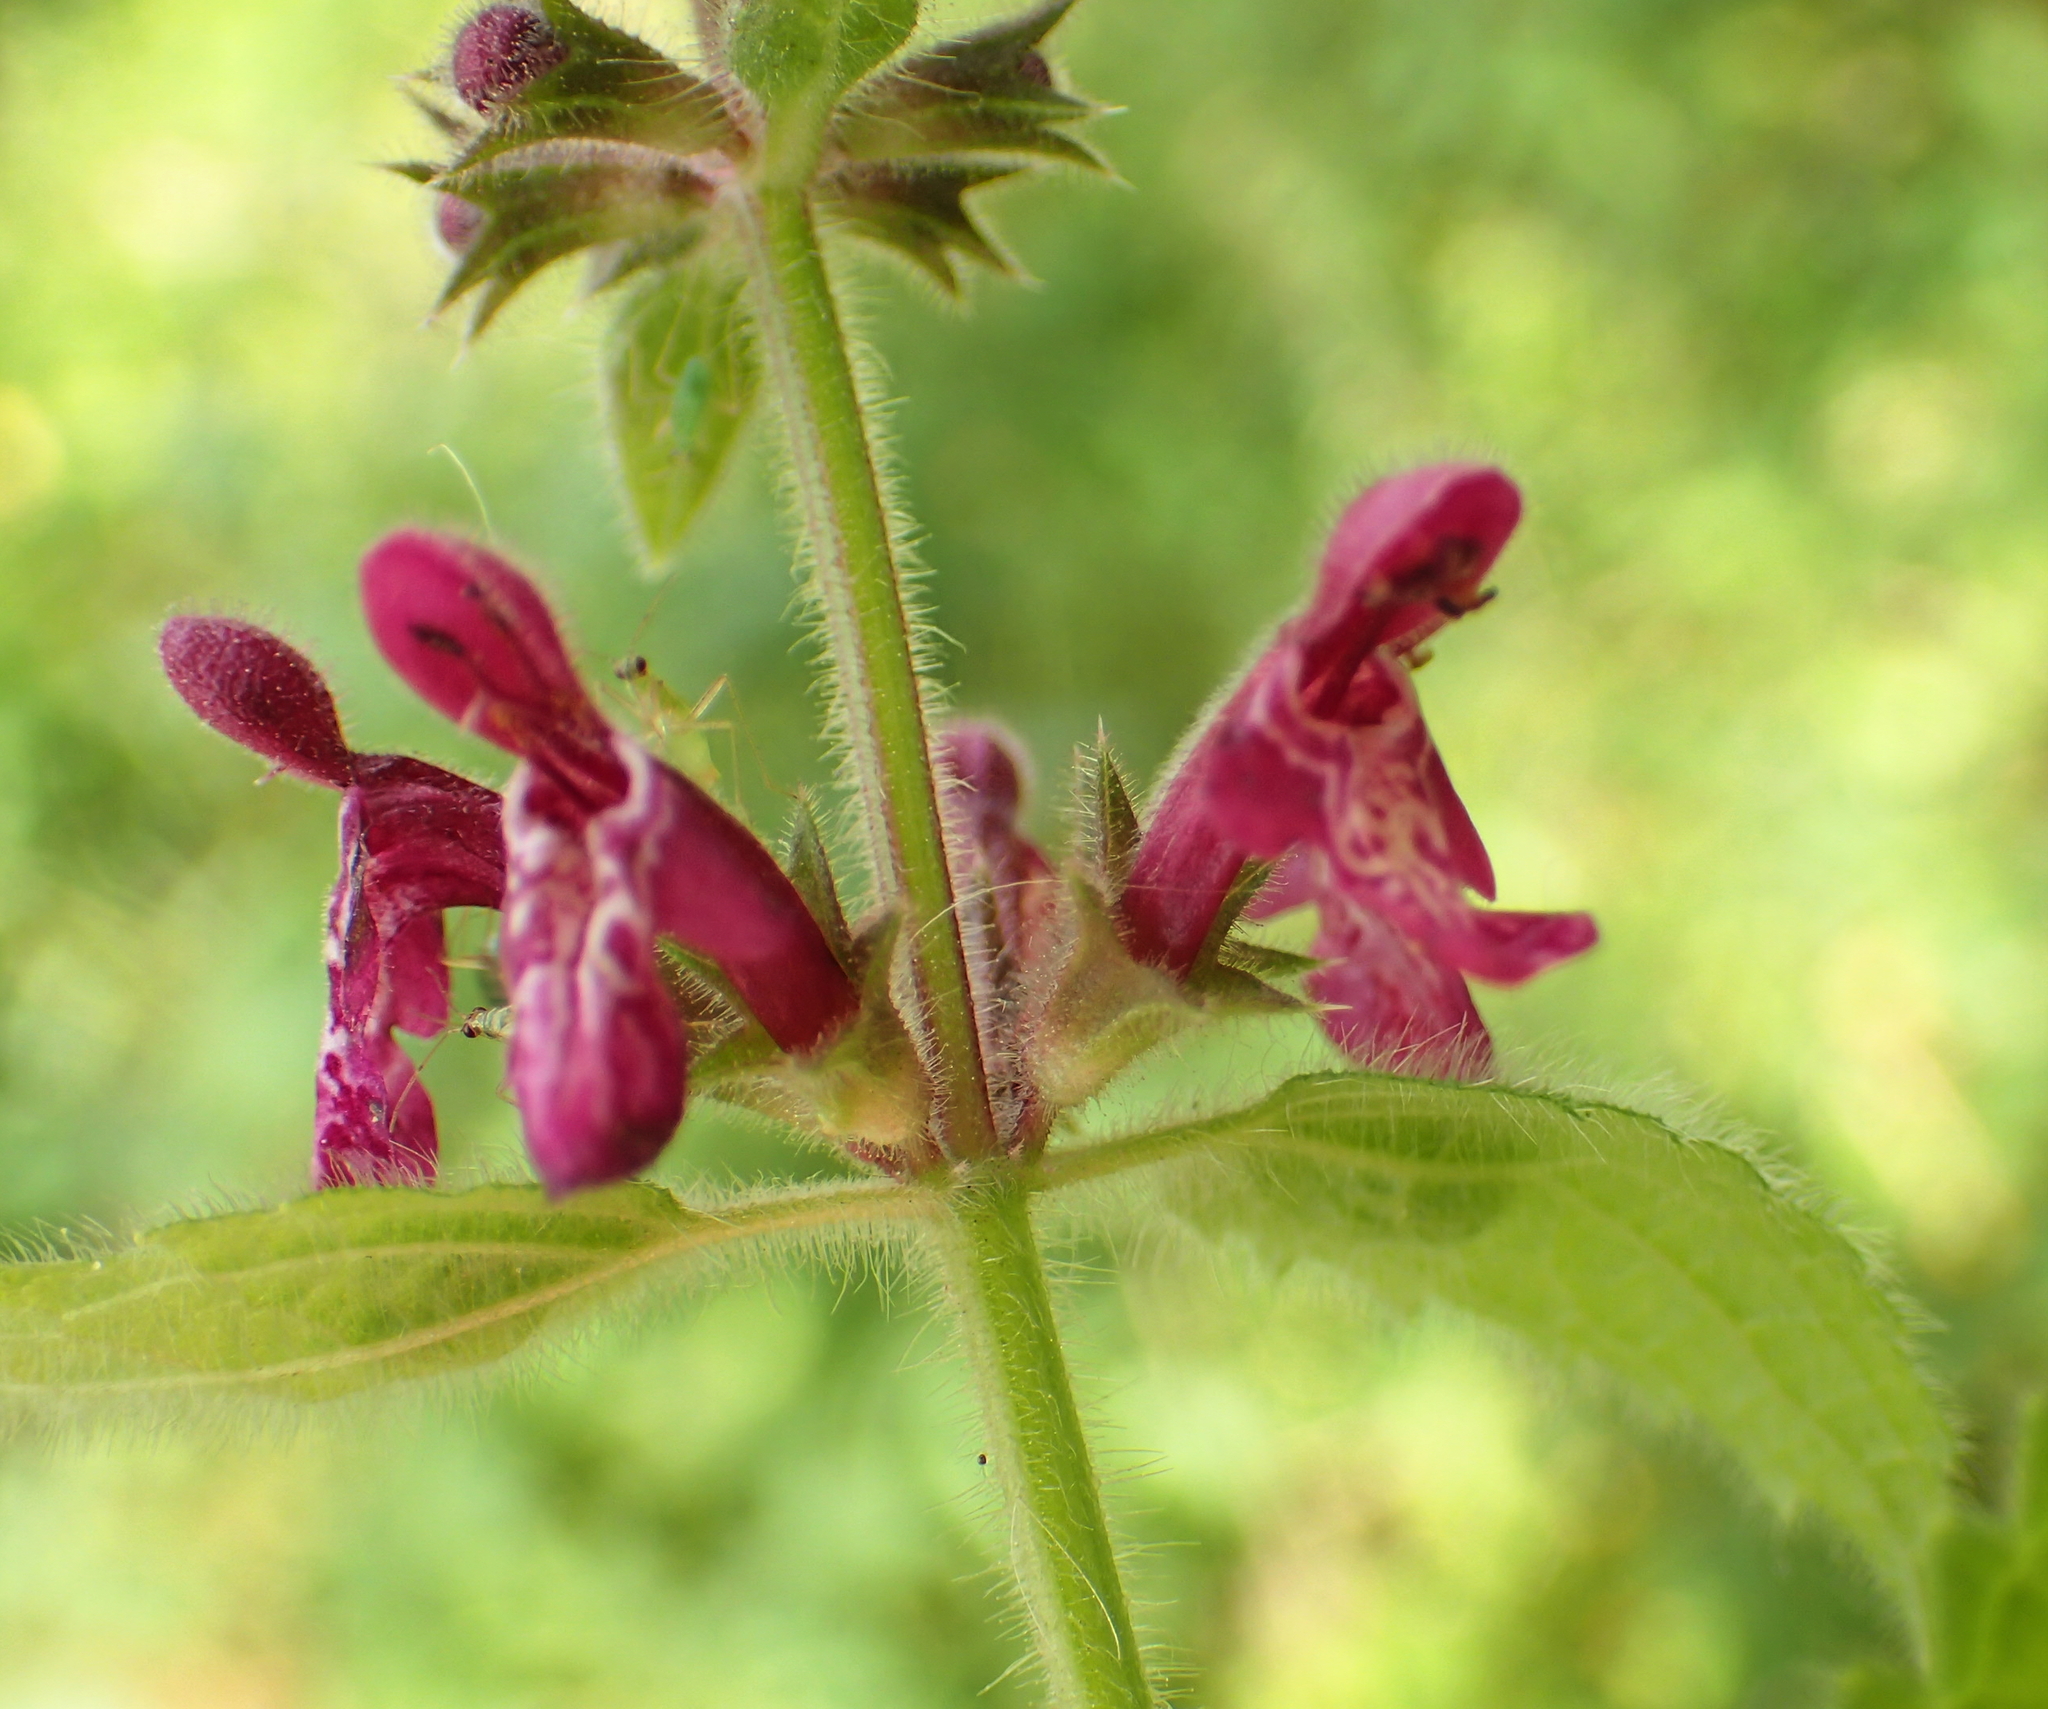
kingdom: Plantae
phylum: Tracheophyta
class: Magnoliopsida
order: Lamiales
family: Lamiaceae
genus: Stachys
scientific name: Stachys sylvatica
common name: Hedge woundwort
